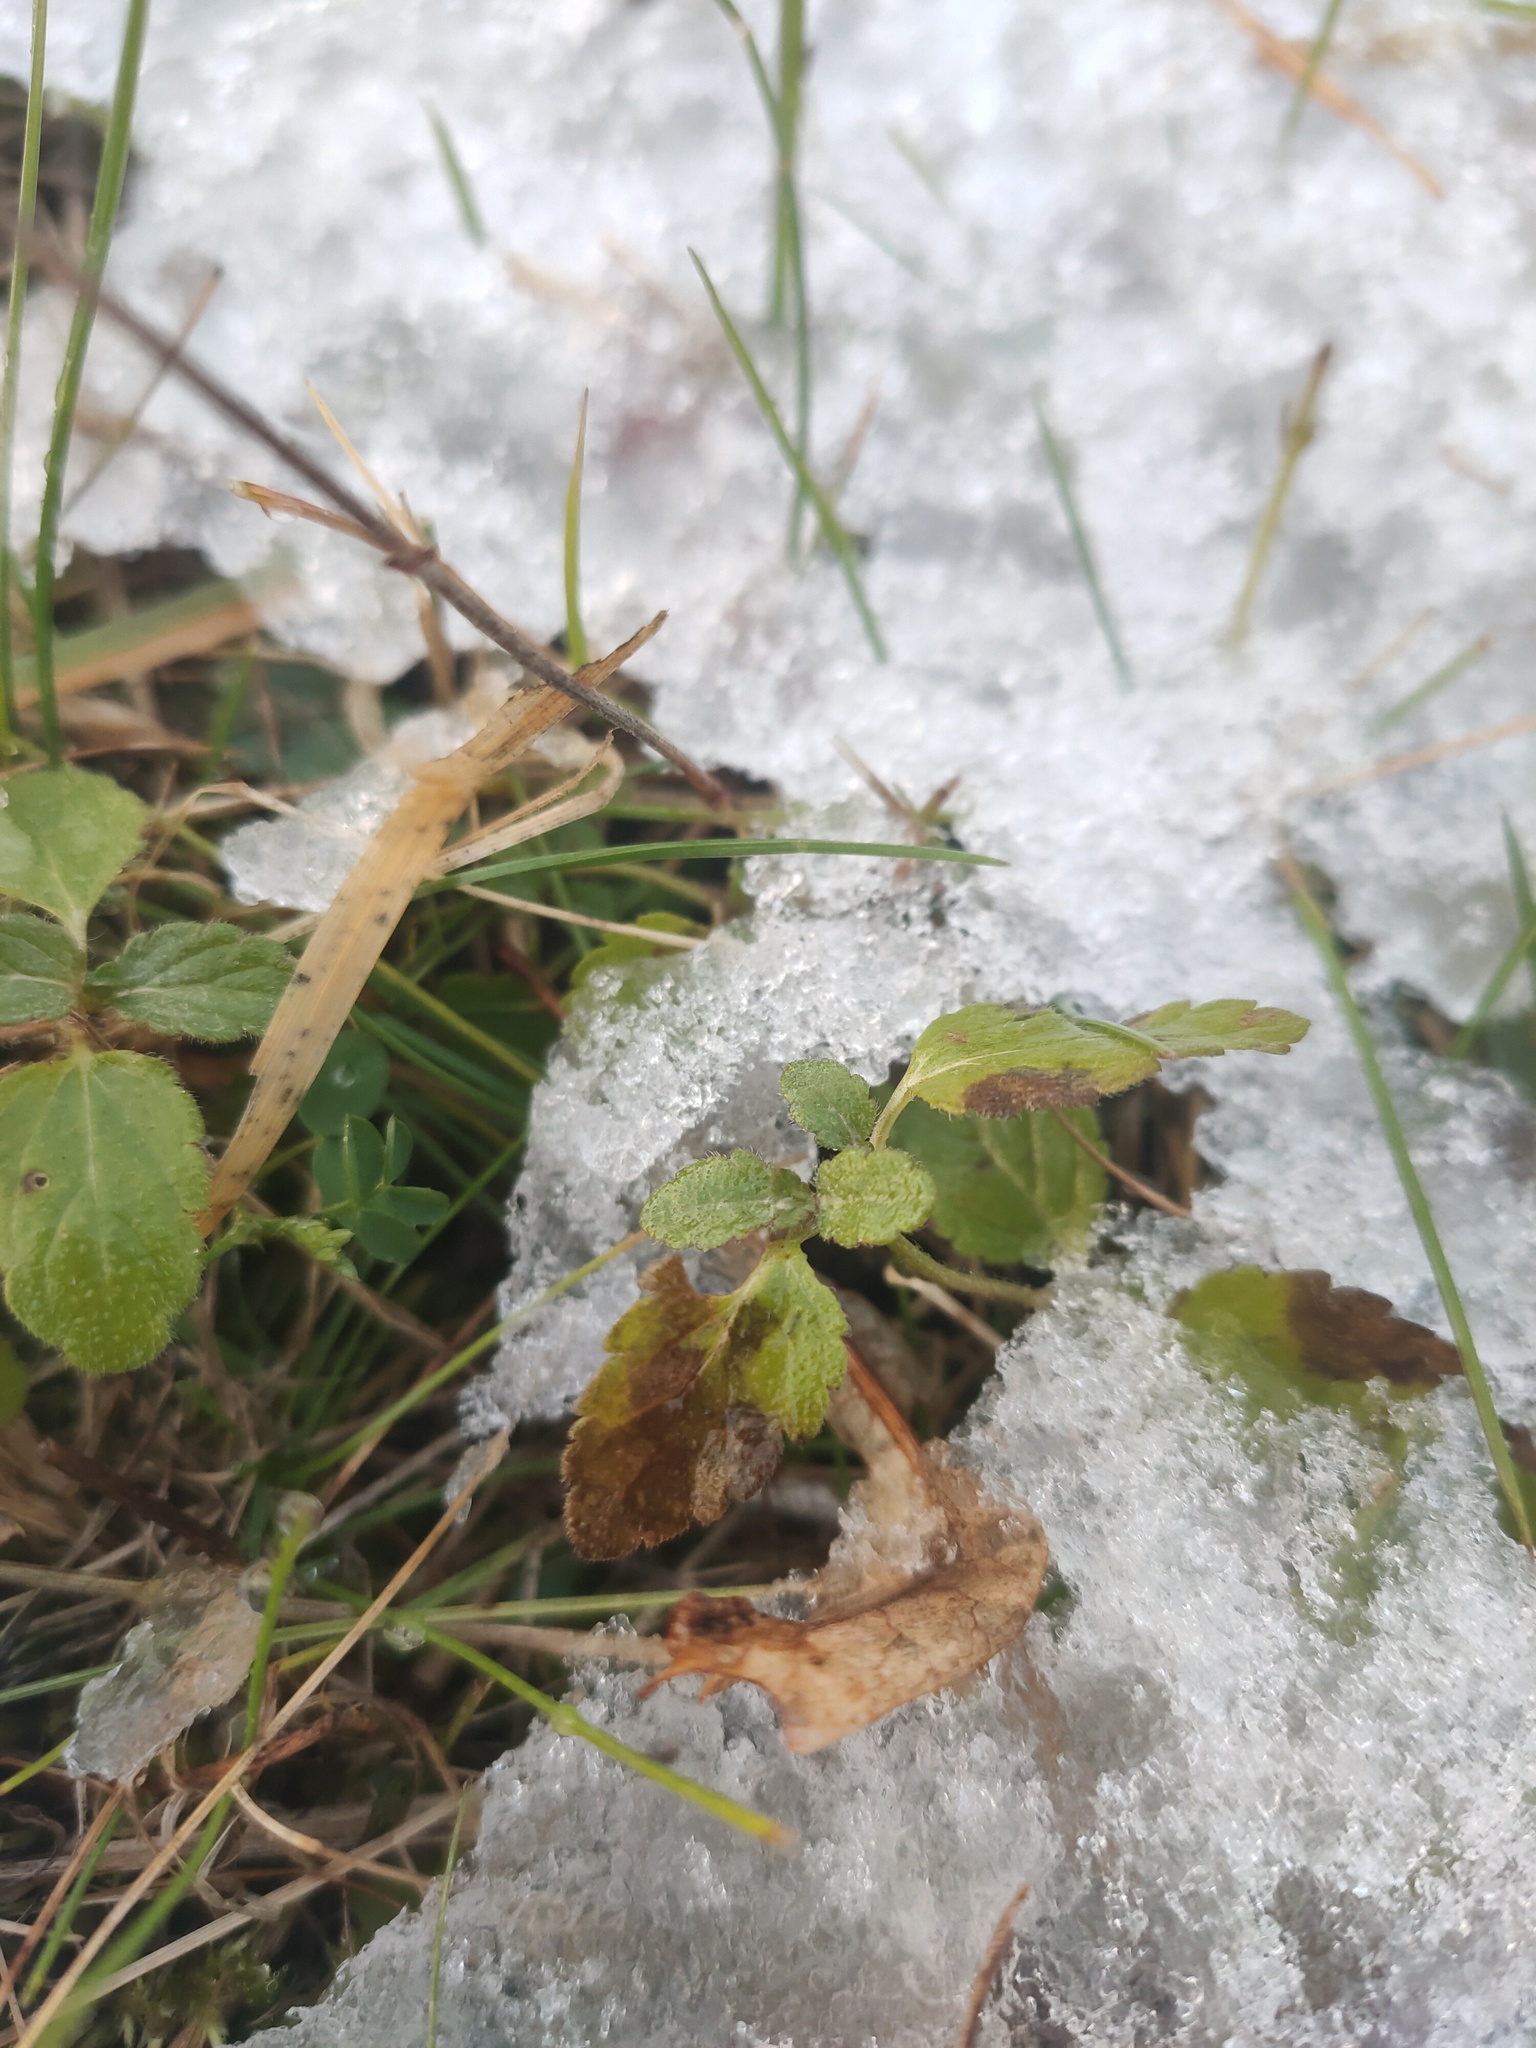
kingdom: Plantae
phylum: Tracheophyta
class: Magnoliopsida
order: Lamiales
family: Plantaginaceae
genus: Veronica
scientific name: Veronica chamaedrys
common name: Germander speedwell
